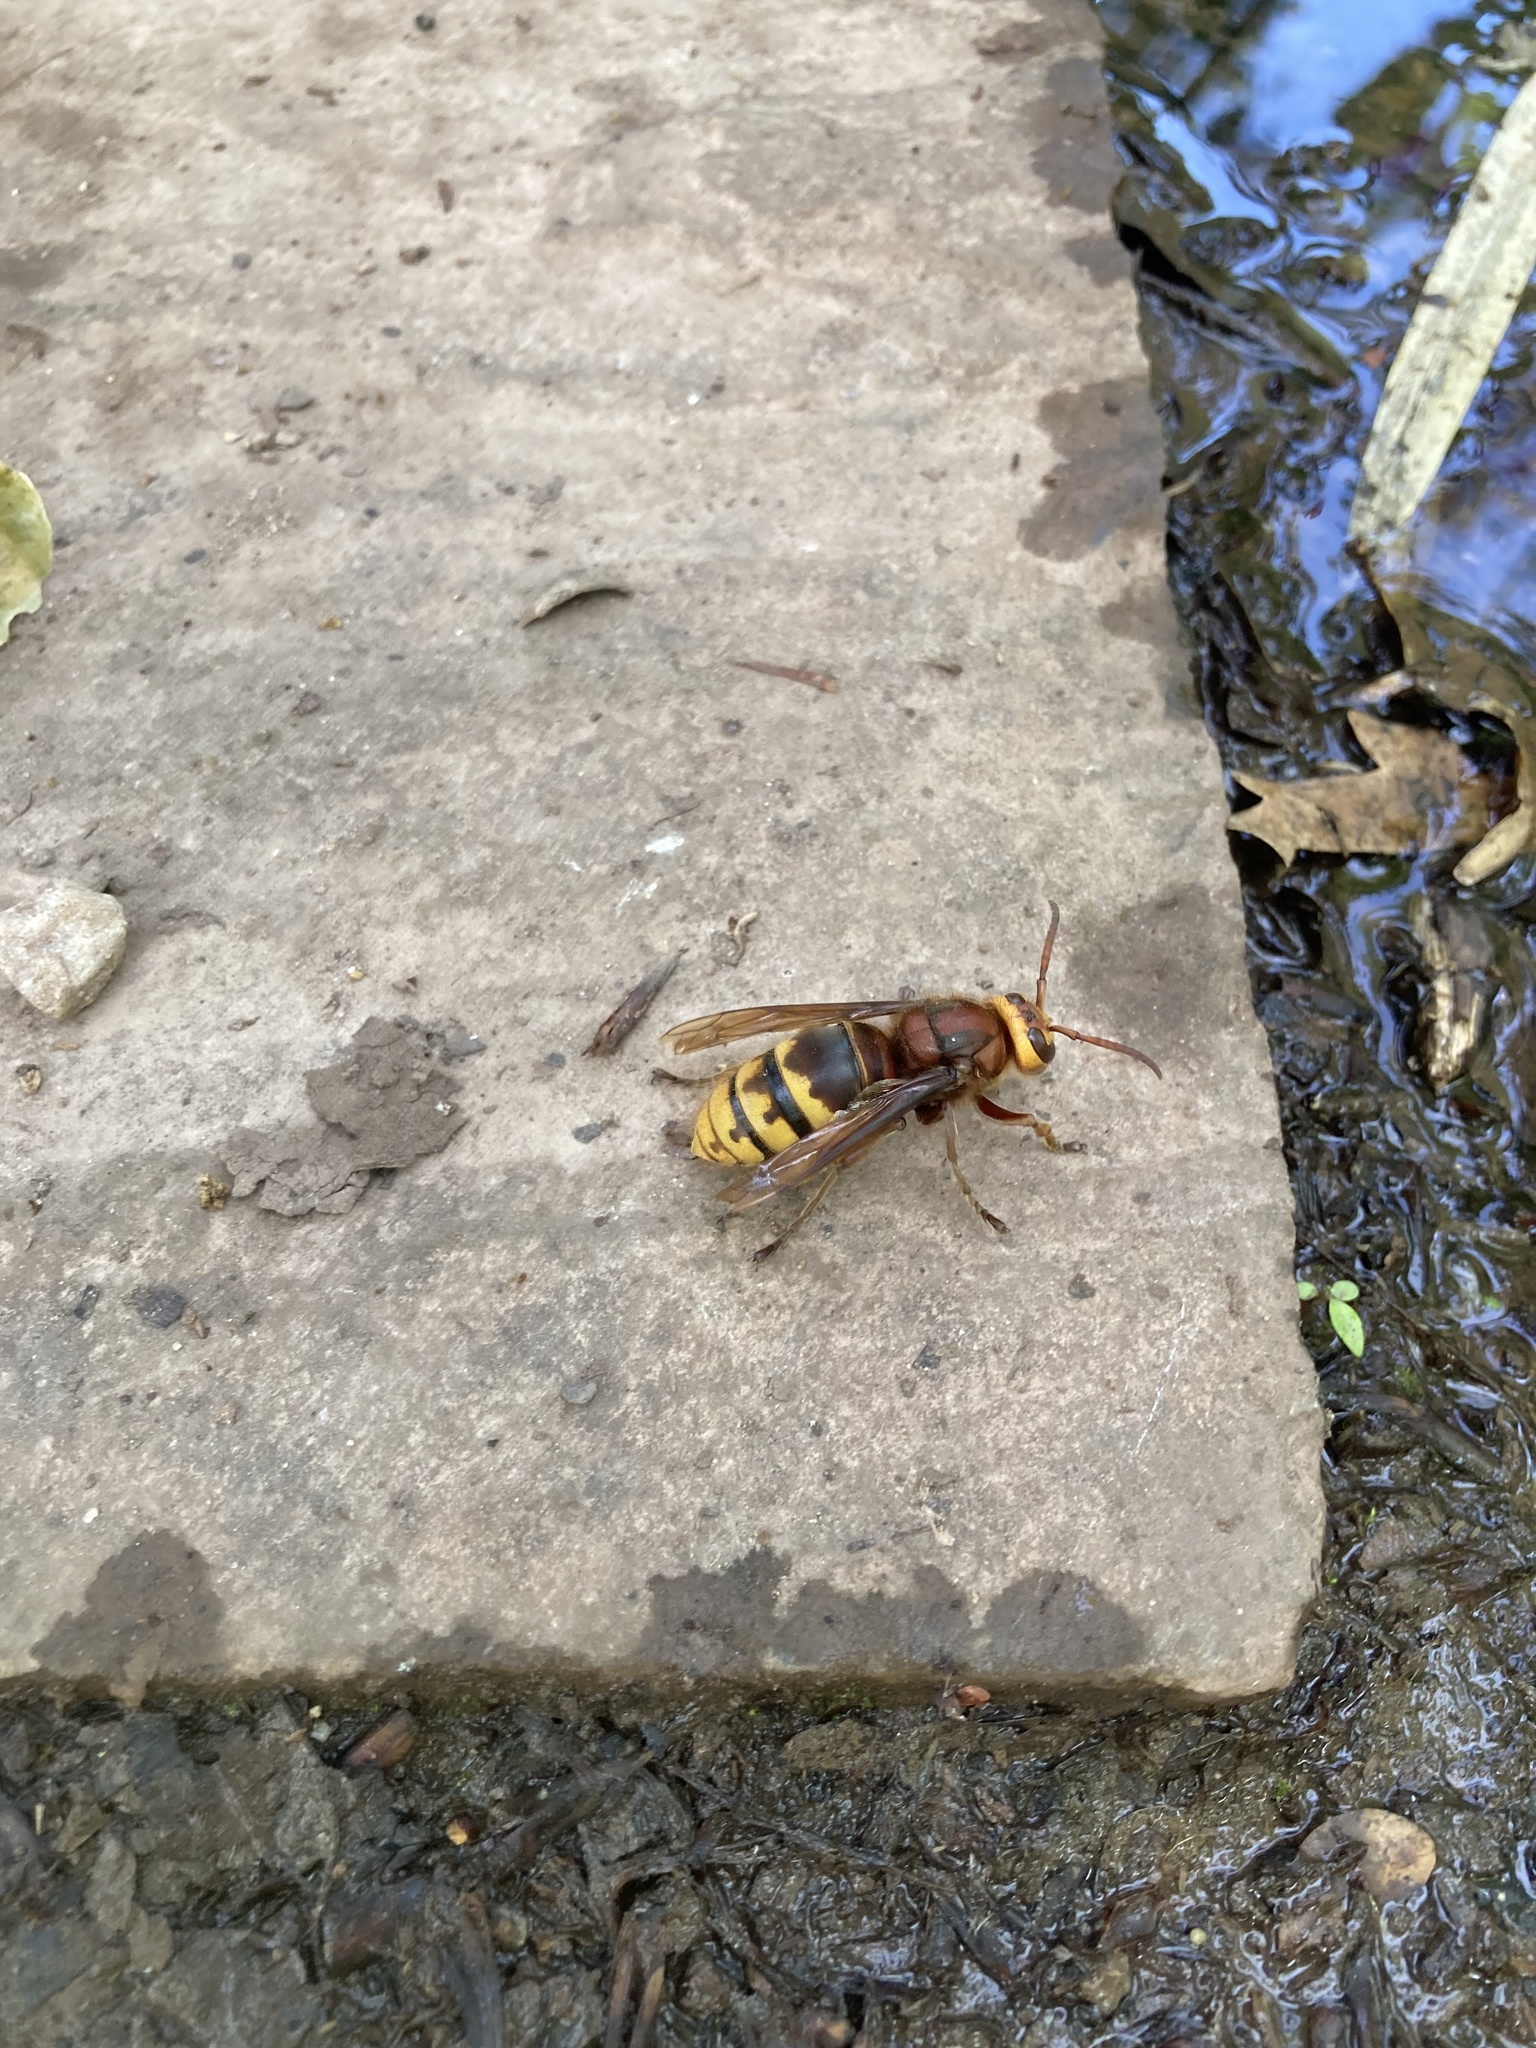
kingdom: Animalia
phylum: Arthropoda
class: Insecta
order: Hymenoptera
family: Vespidae
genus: Vespa
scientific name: Vespa crabro
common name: Hornet
